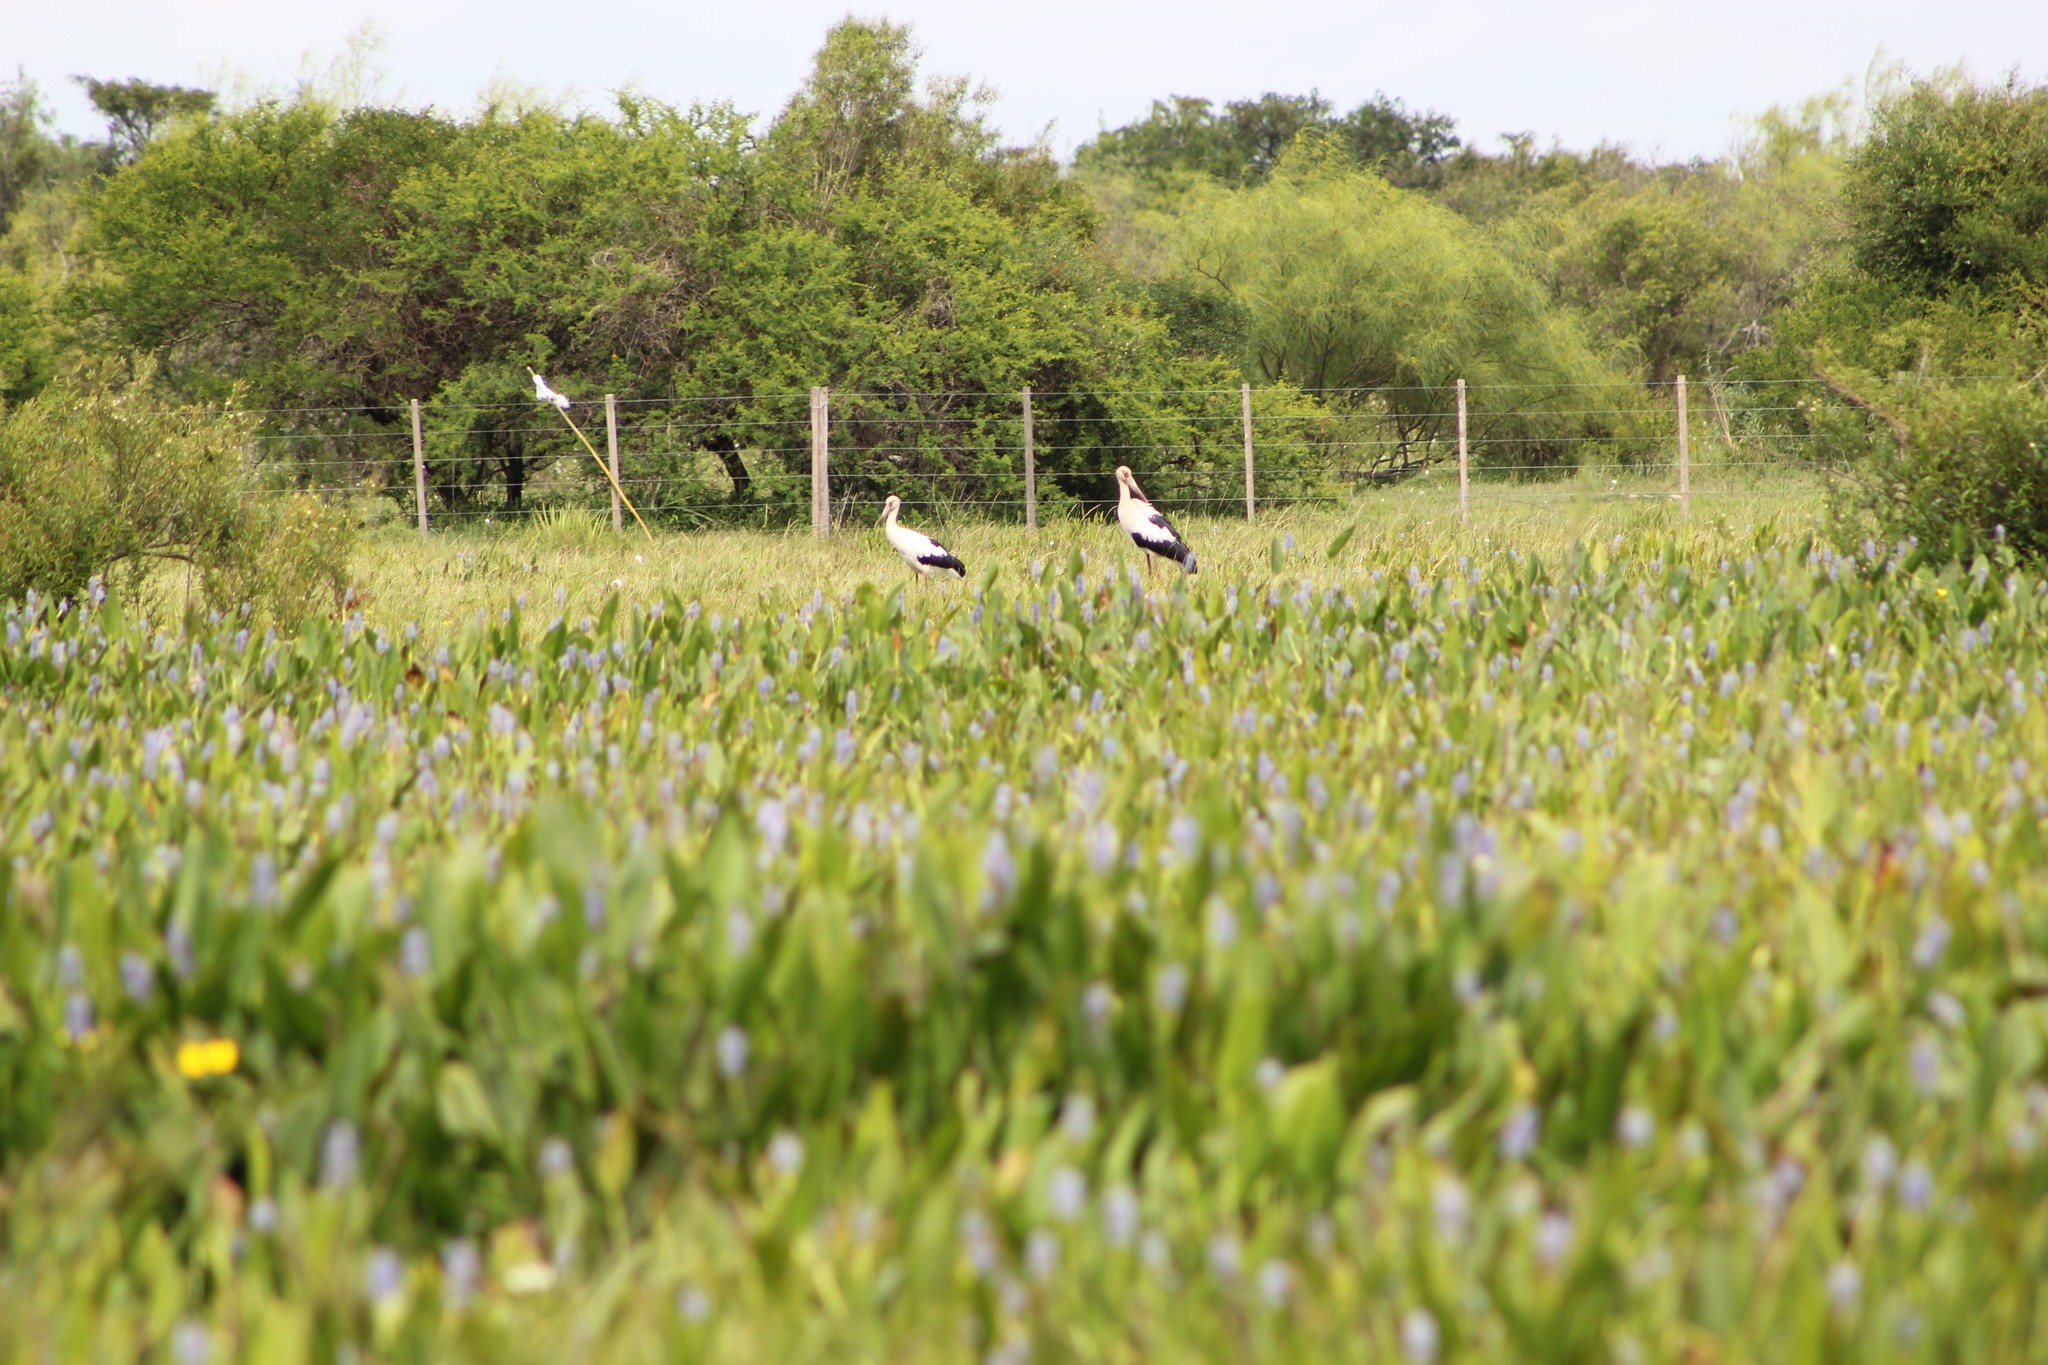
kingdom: Animalia
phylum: Chordata
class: Aves
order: Ciconiiformes
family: Ciconiidae
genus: Ciconia
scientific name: Ciconia maguari
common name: Maguari stork
